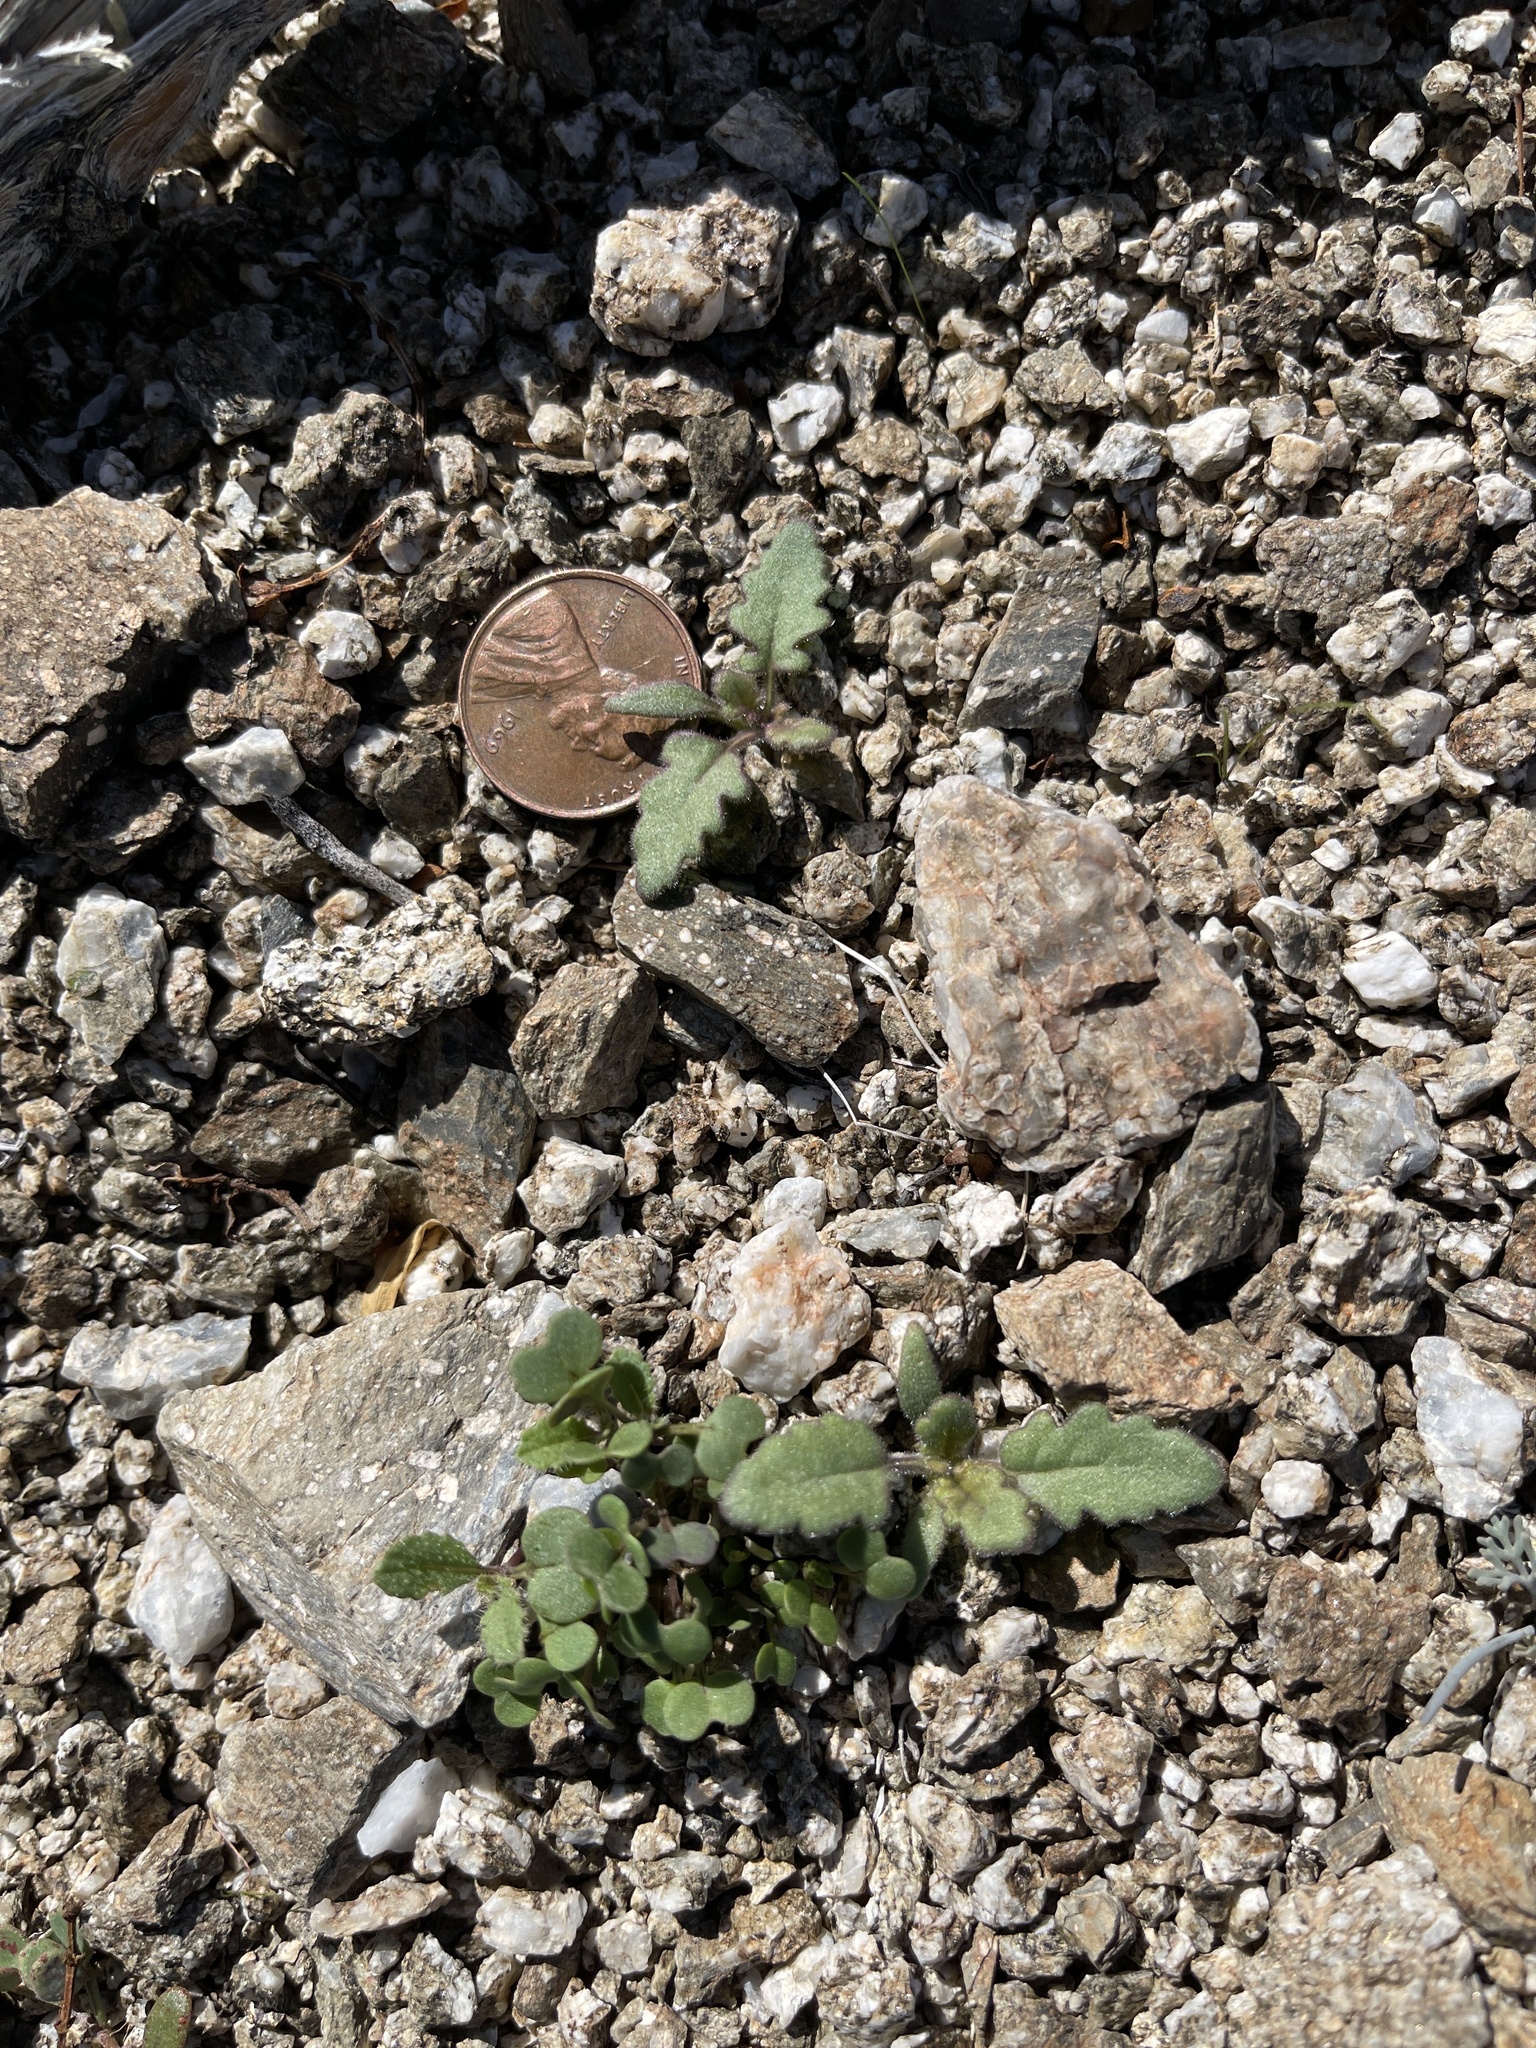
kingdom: Plantae
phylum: Tracheophyta
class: Magnoliopsida
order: Boraginales
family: Hydrophyllaceae
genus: Phacelia
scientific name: Phacelia crenulata
